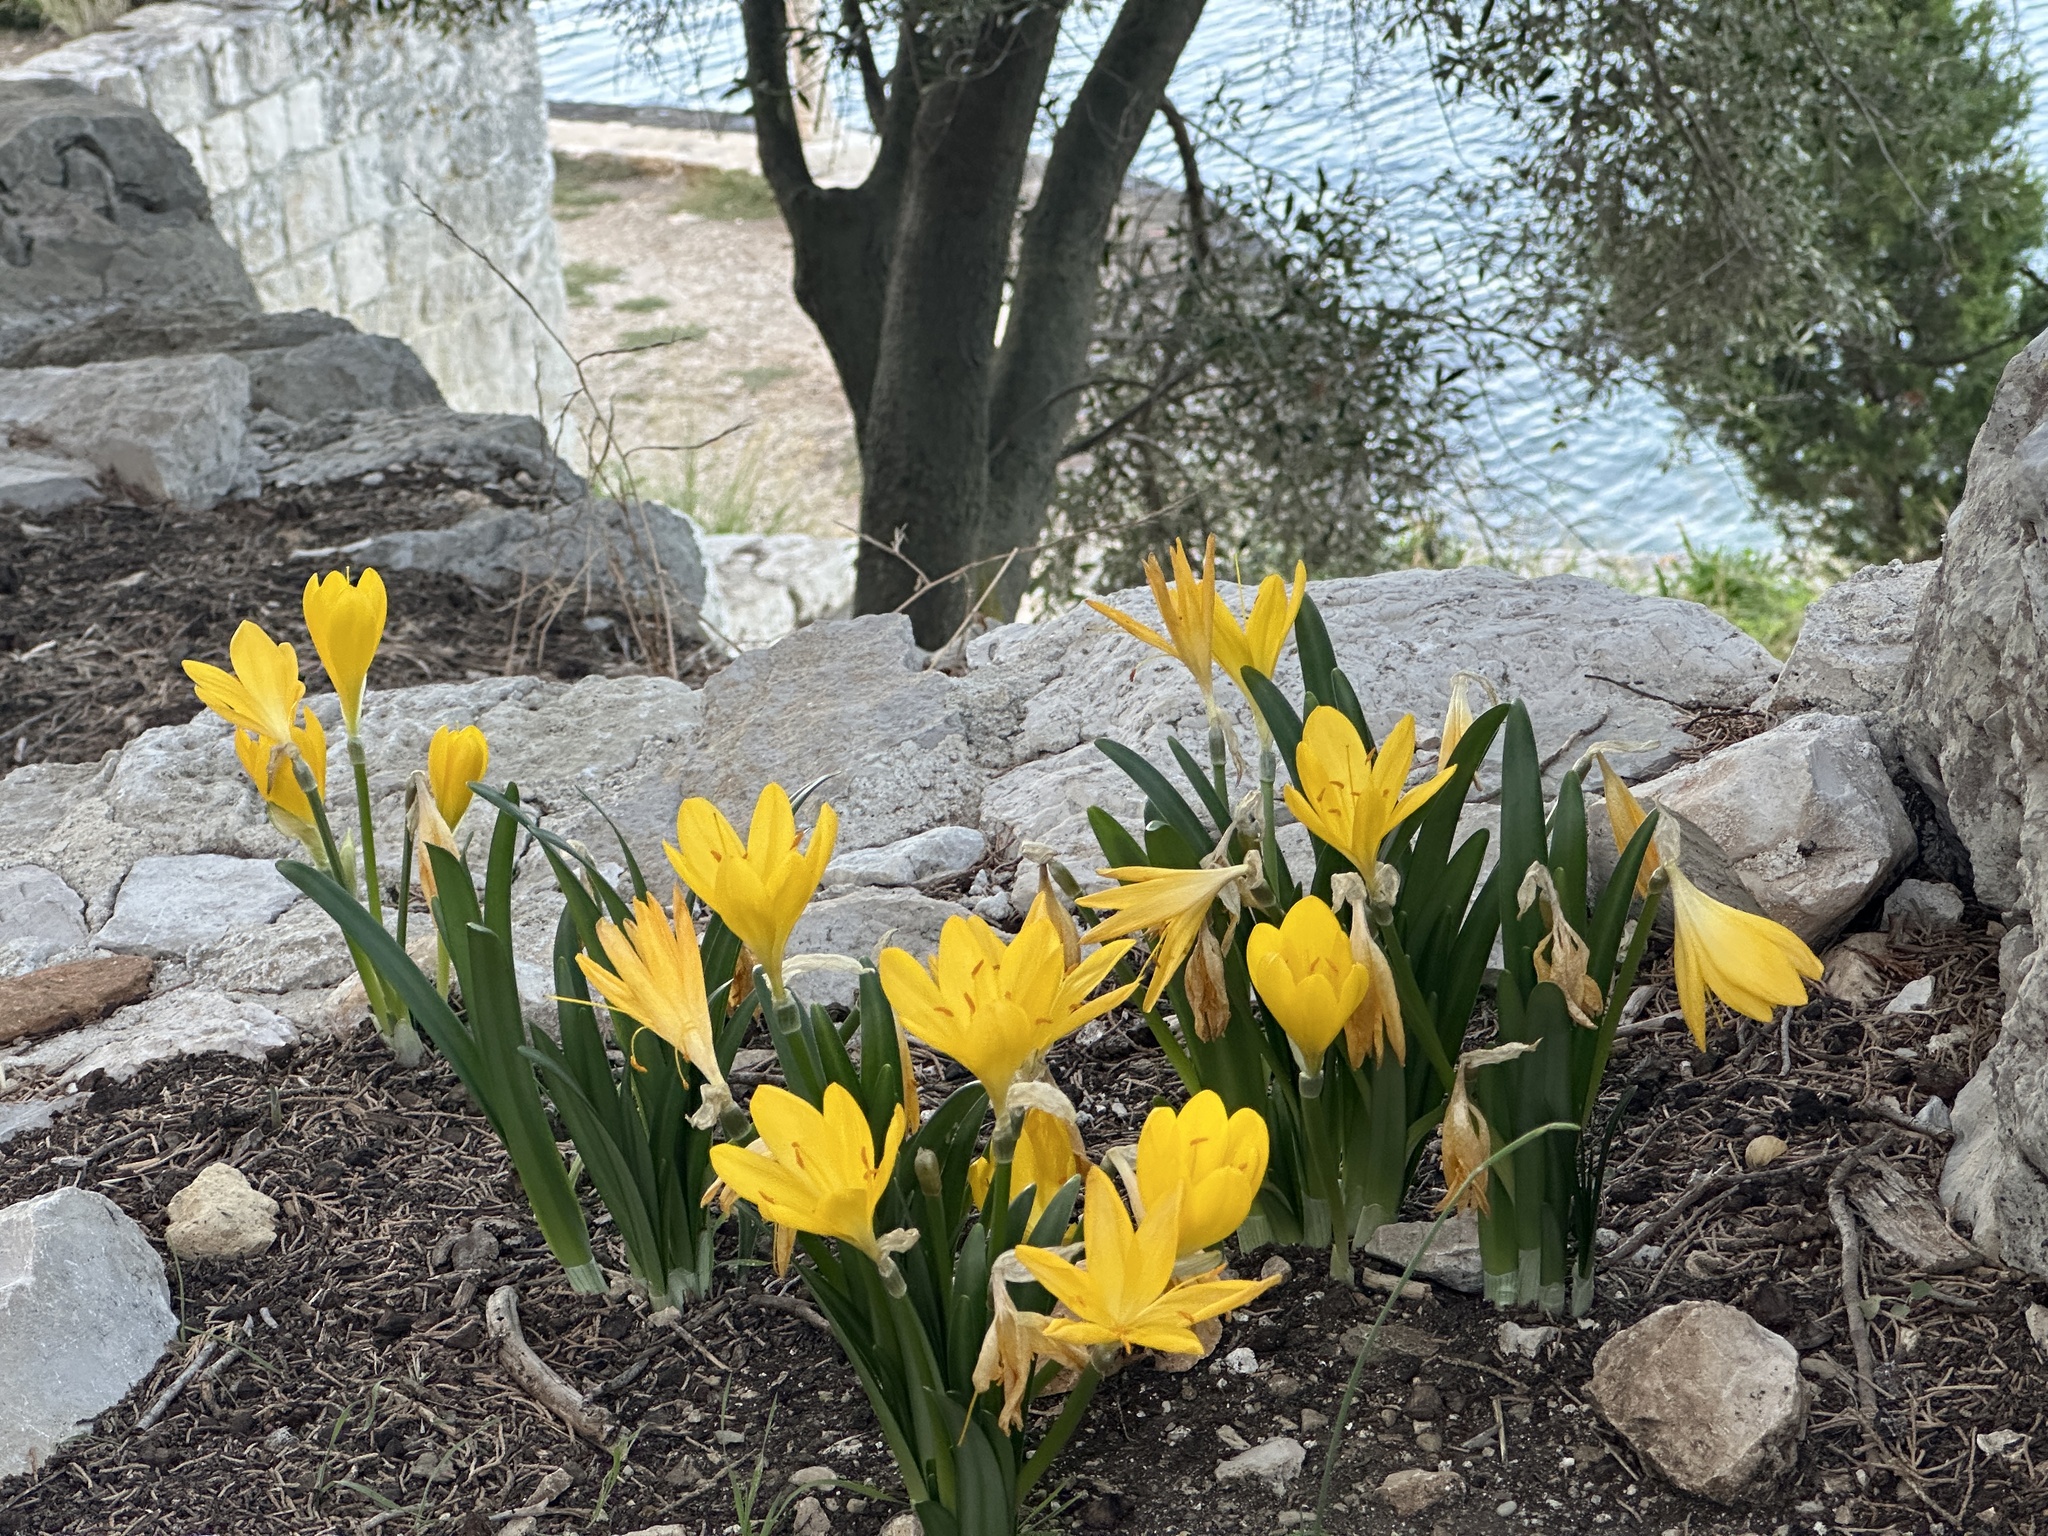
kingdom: Plantae
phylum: Tracheophyta
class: Liliopsida
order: Asparagales
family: Amaryllidaceae
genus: Sternbergia
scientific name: Sternbergia lutea
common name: Winter daffodil
